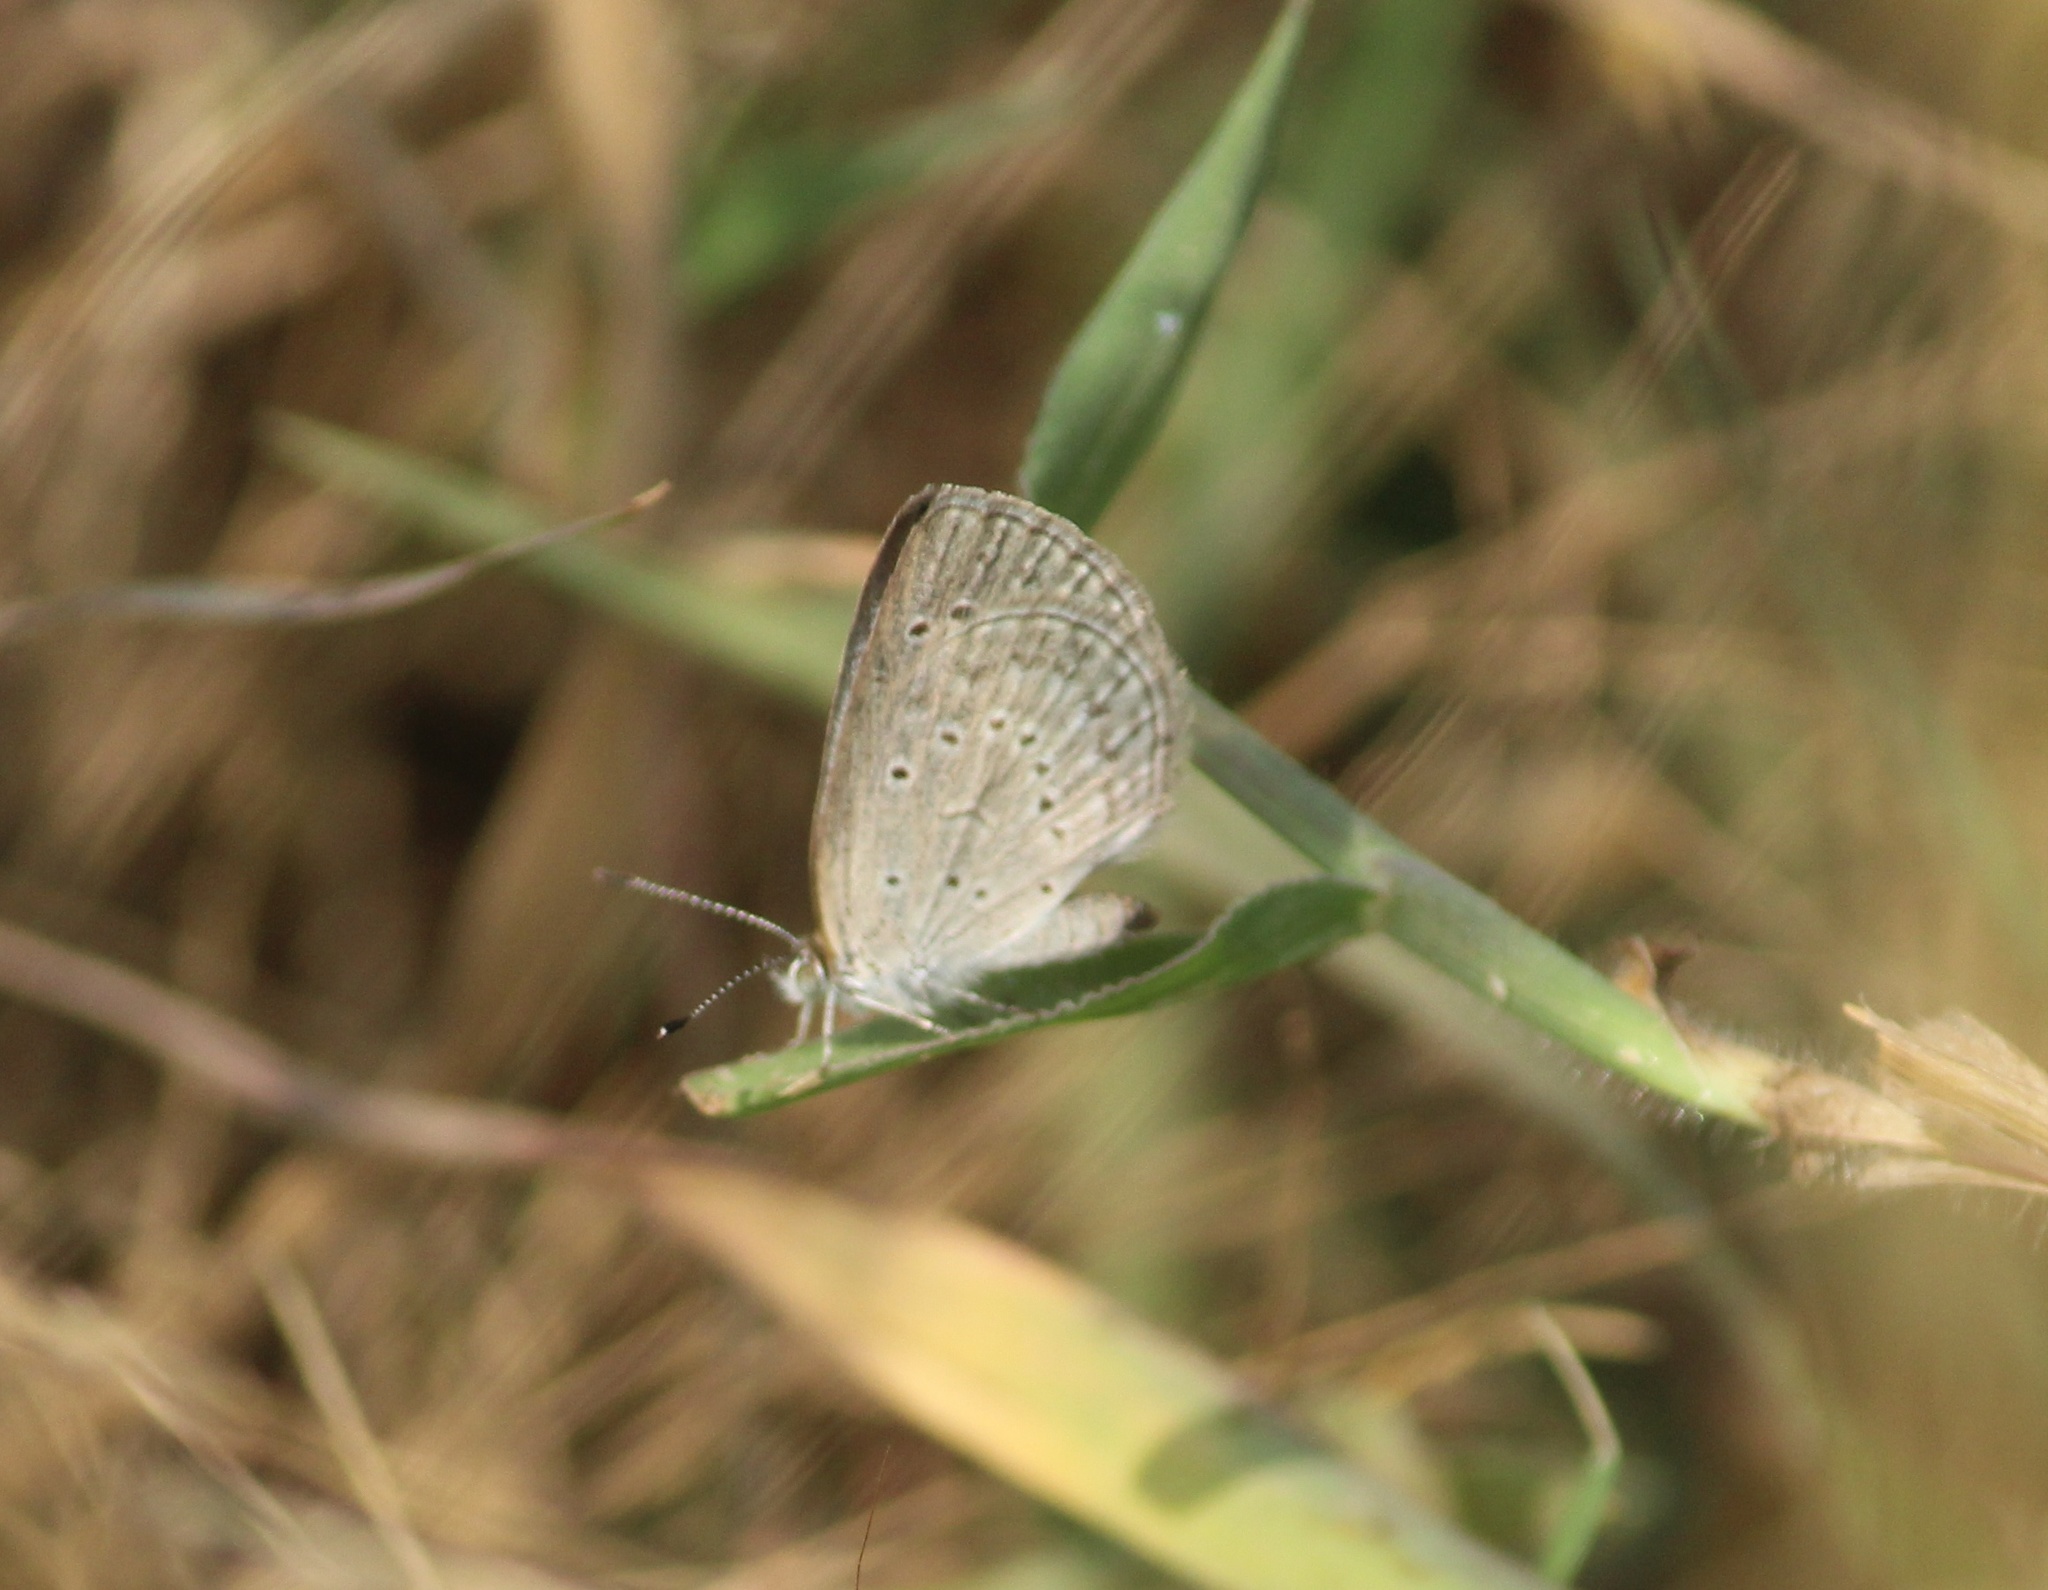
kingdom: Animalia
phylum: Arthropoda
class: Insecta
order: Lepidoptera
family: Lycaenidae
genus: Pseudozizeeria
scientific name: Pseudozizeeria maha
